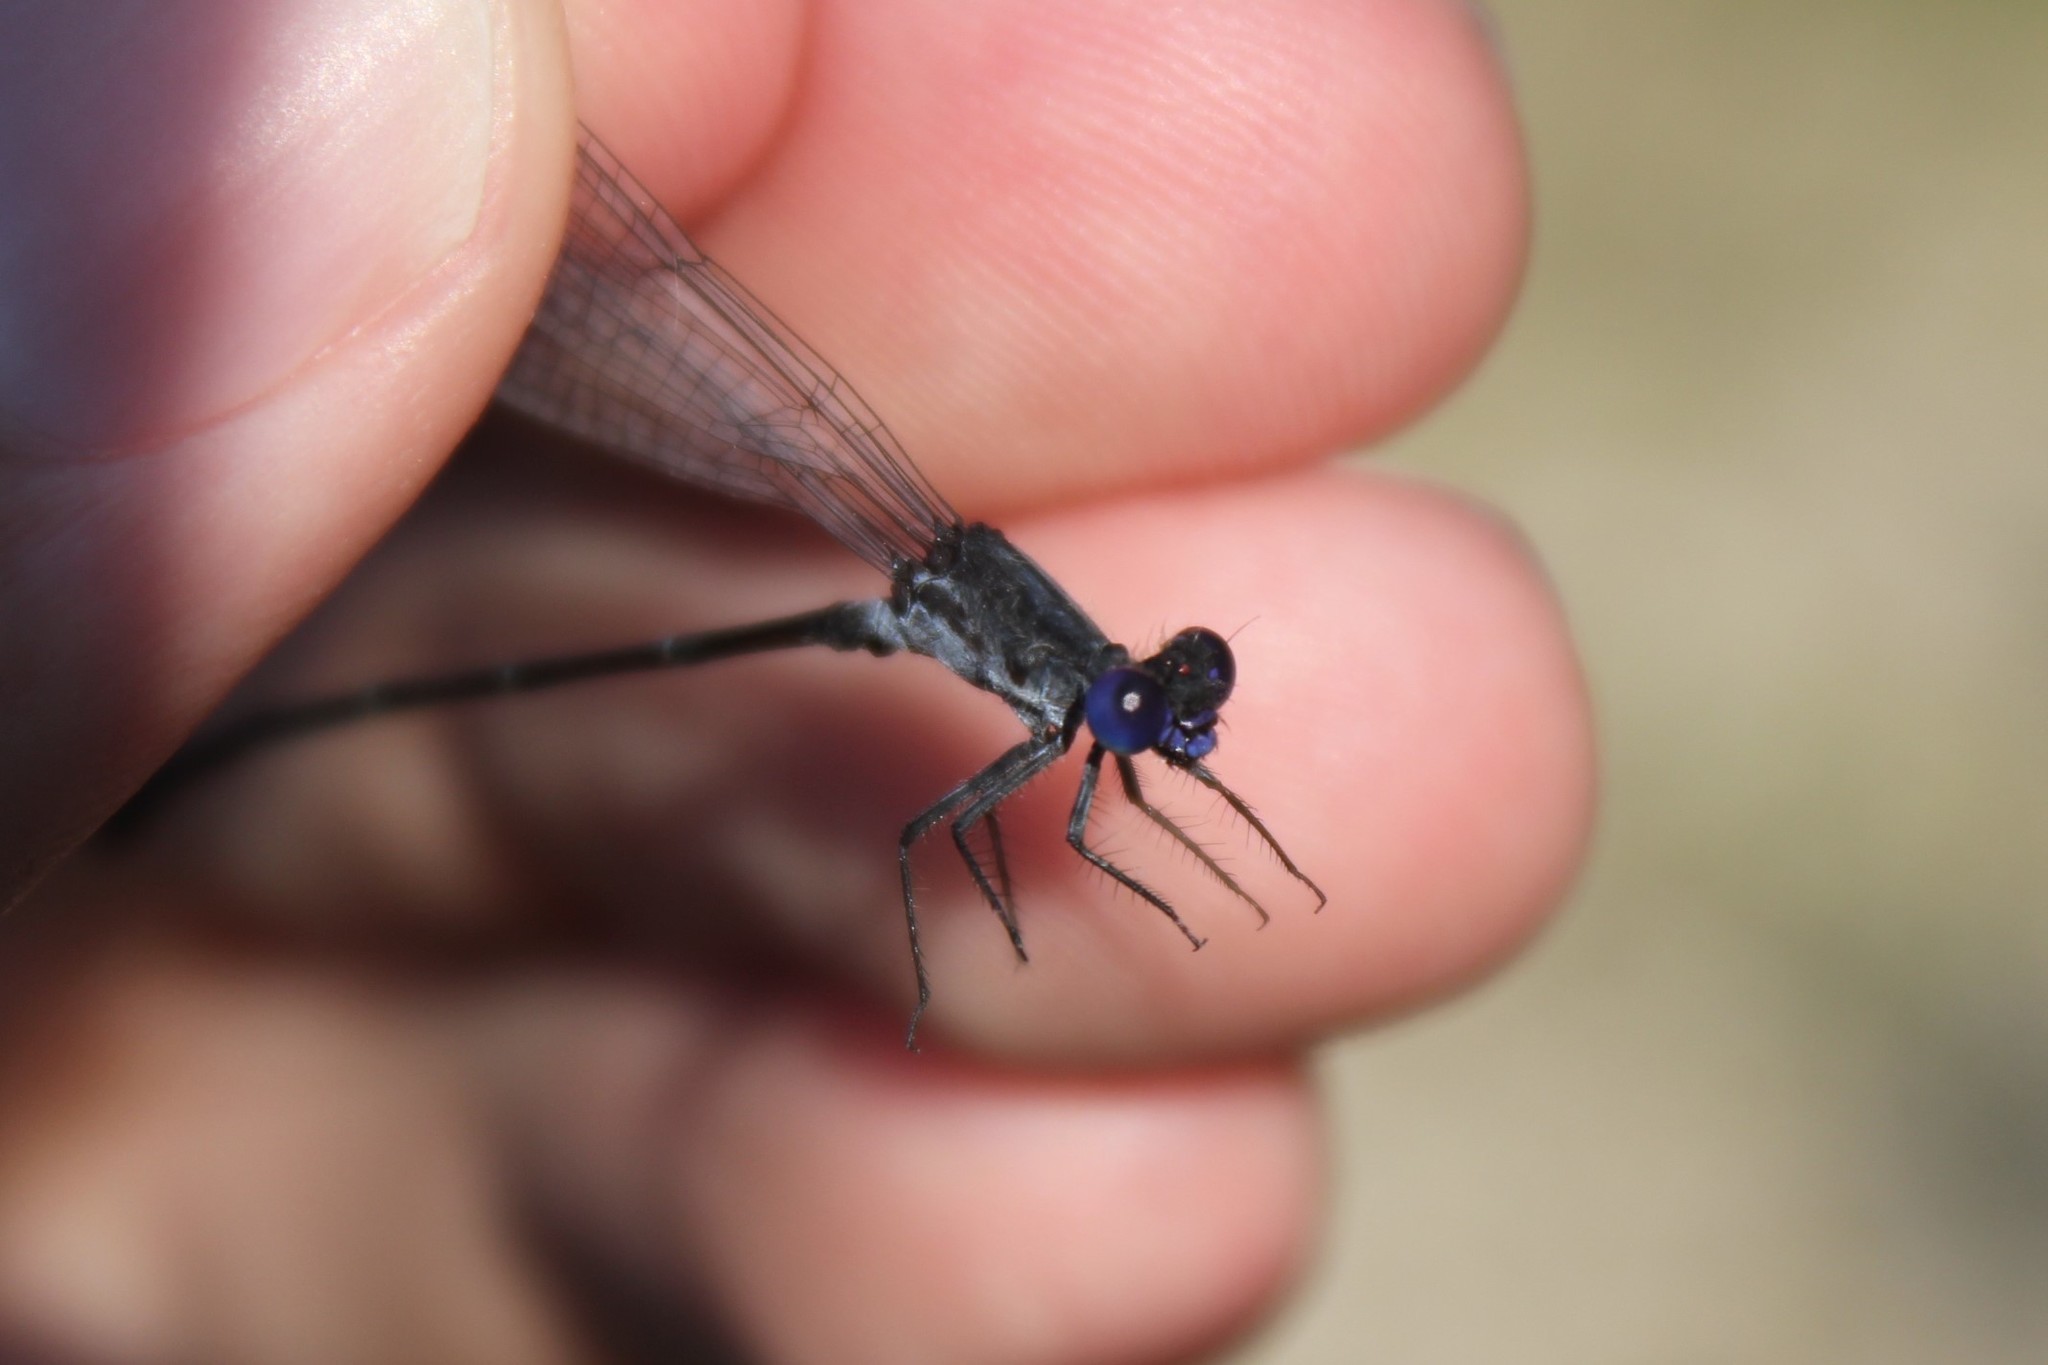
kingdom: Animalia
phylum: Arthropoda
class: Insecta
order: Odonata
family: Coenagrionidae
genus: Argia
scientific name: Argia translata
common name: Dusky dancer
